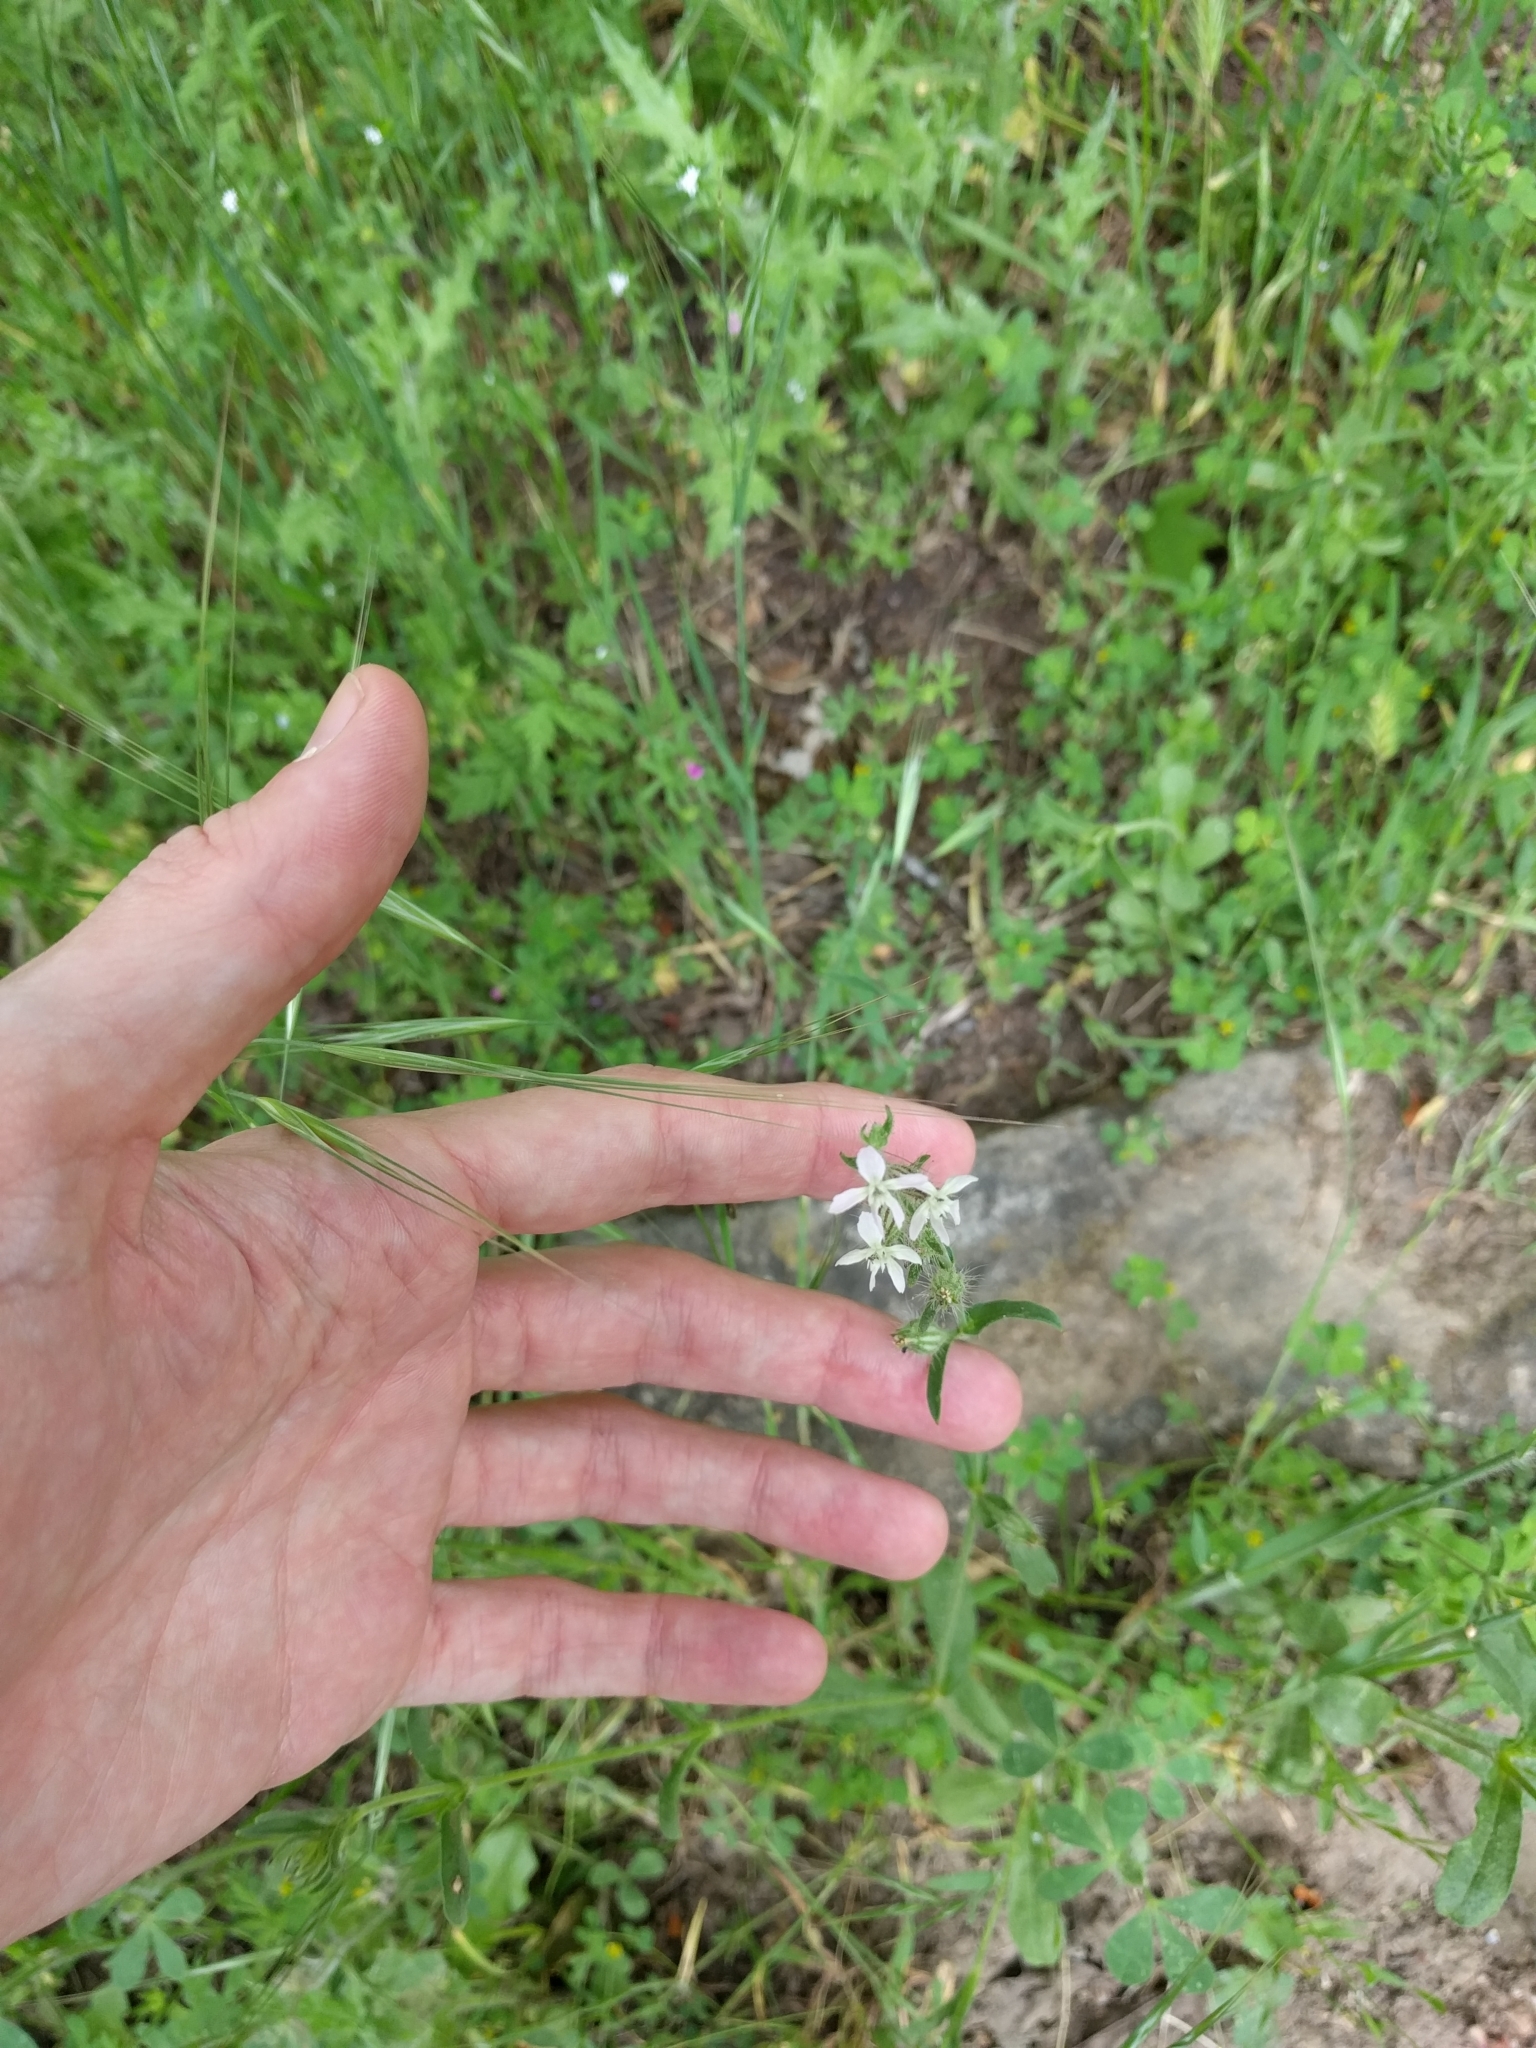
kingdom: Plantae
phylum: Tracheophyta
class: Magnoliopsida
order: Caryophyllales
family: Caryophyllaceae
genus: Silene
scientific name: Silene gallica
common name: Small-flowered catchfly
